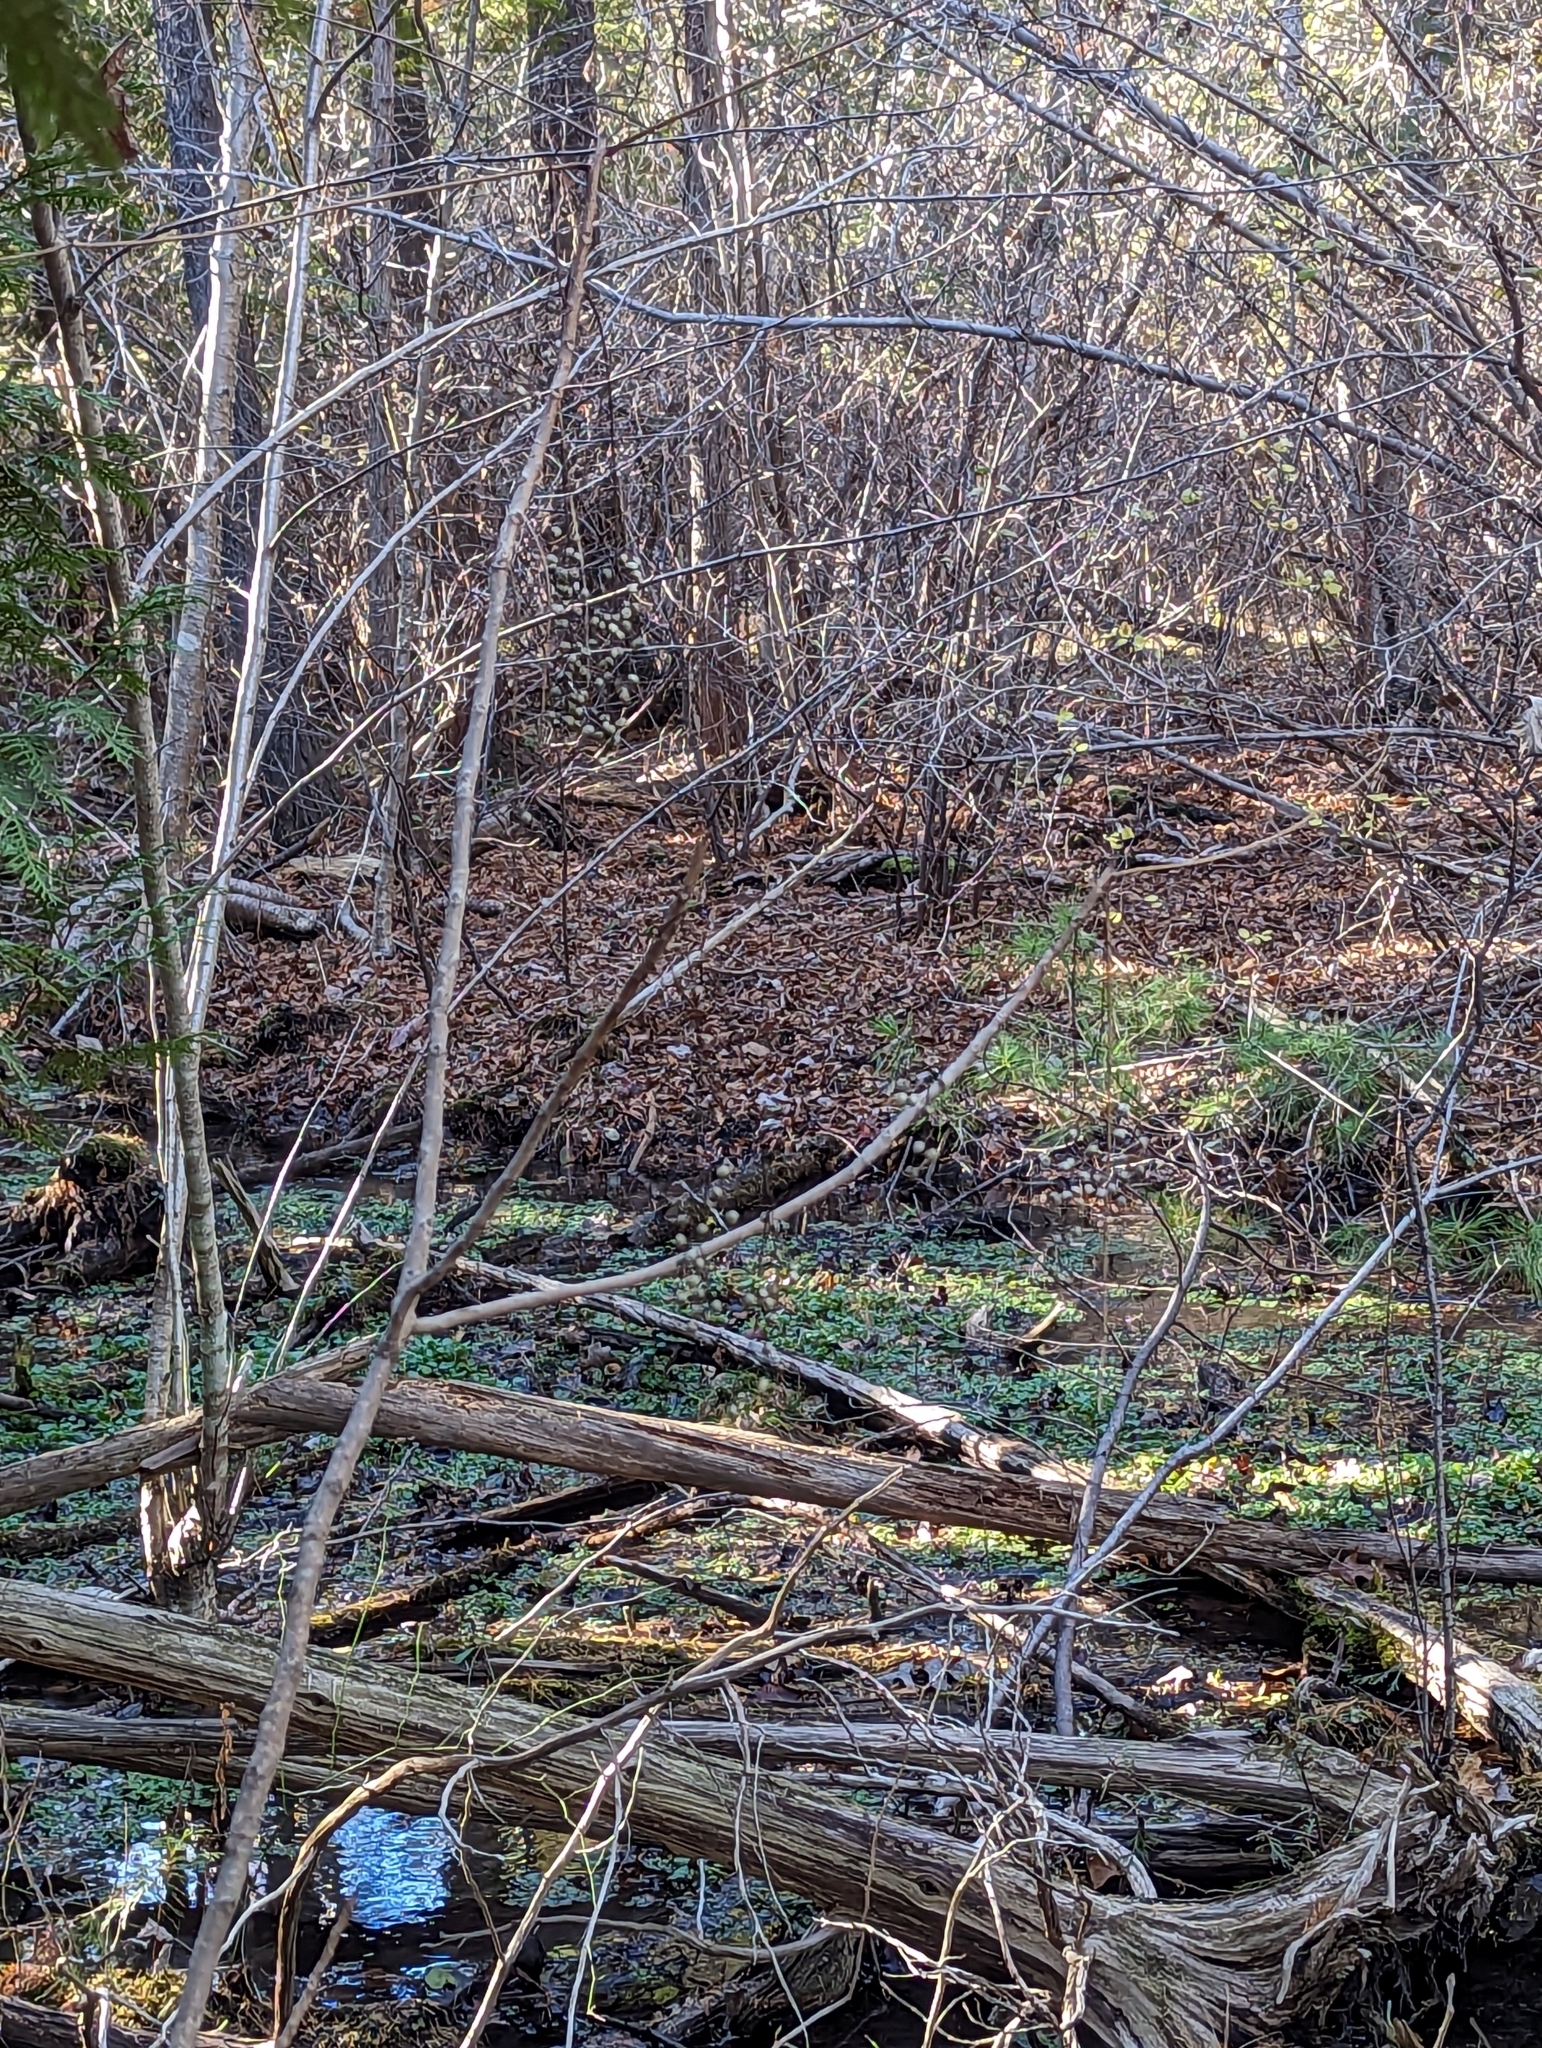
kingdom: Plantae
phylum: Tracheophyta
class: Magnoliopsida
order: Sapindales
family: Anacardiaceae
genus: Toxicodendron
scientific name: Toxicodendron vernix
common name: Poison sumac
